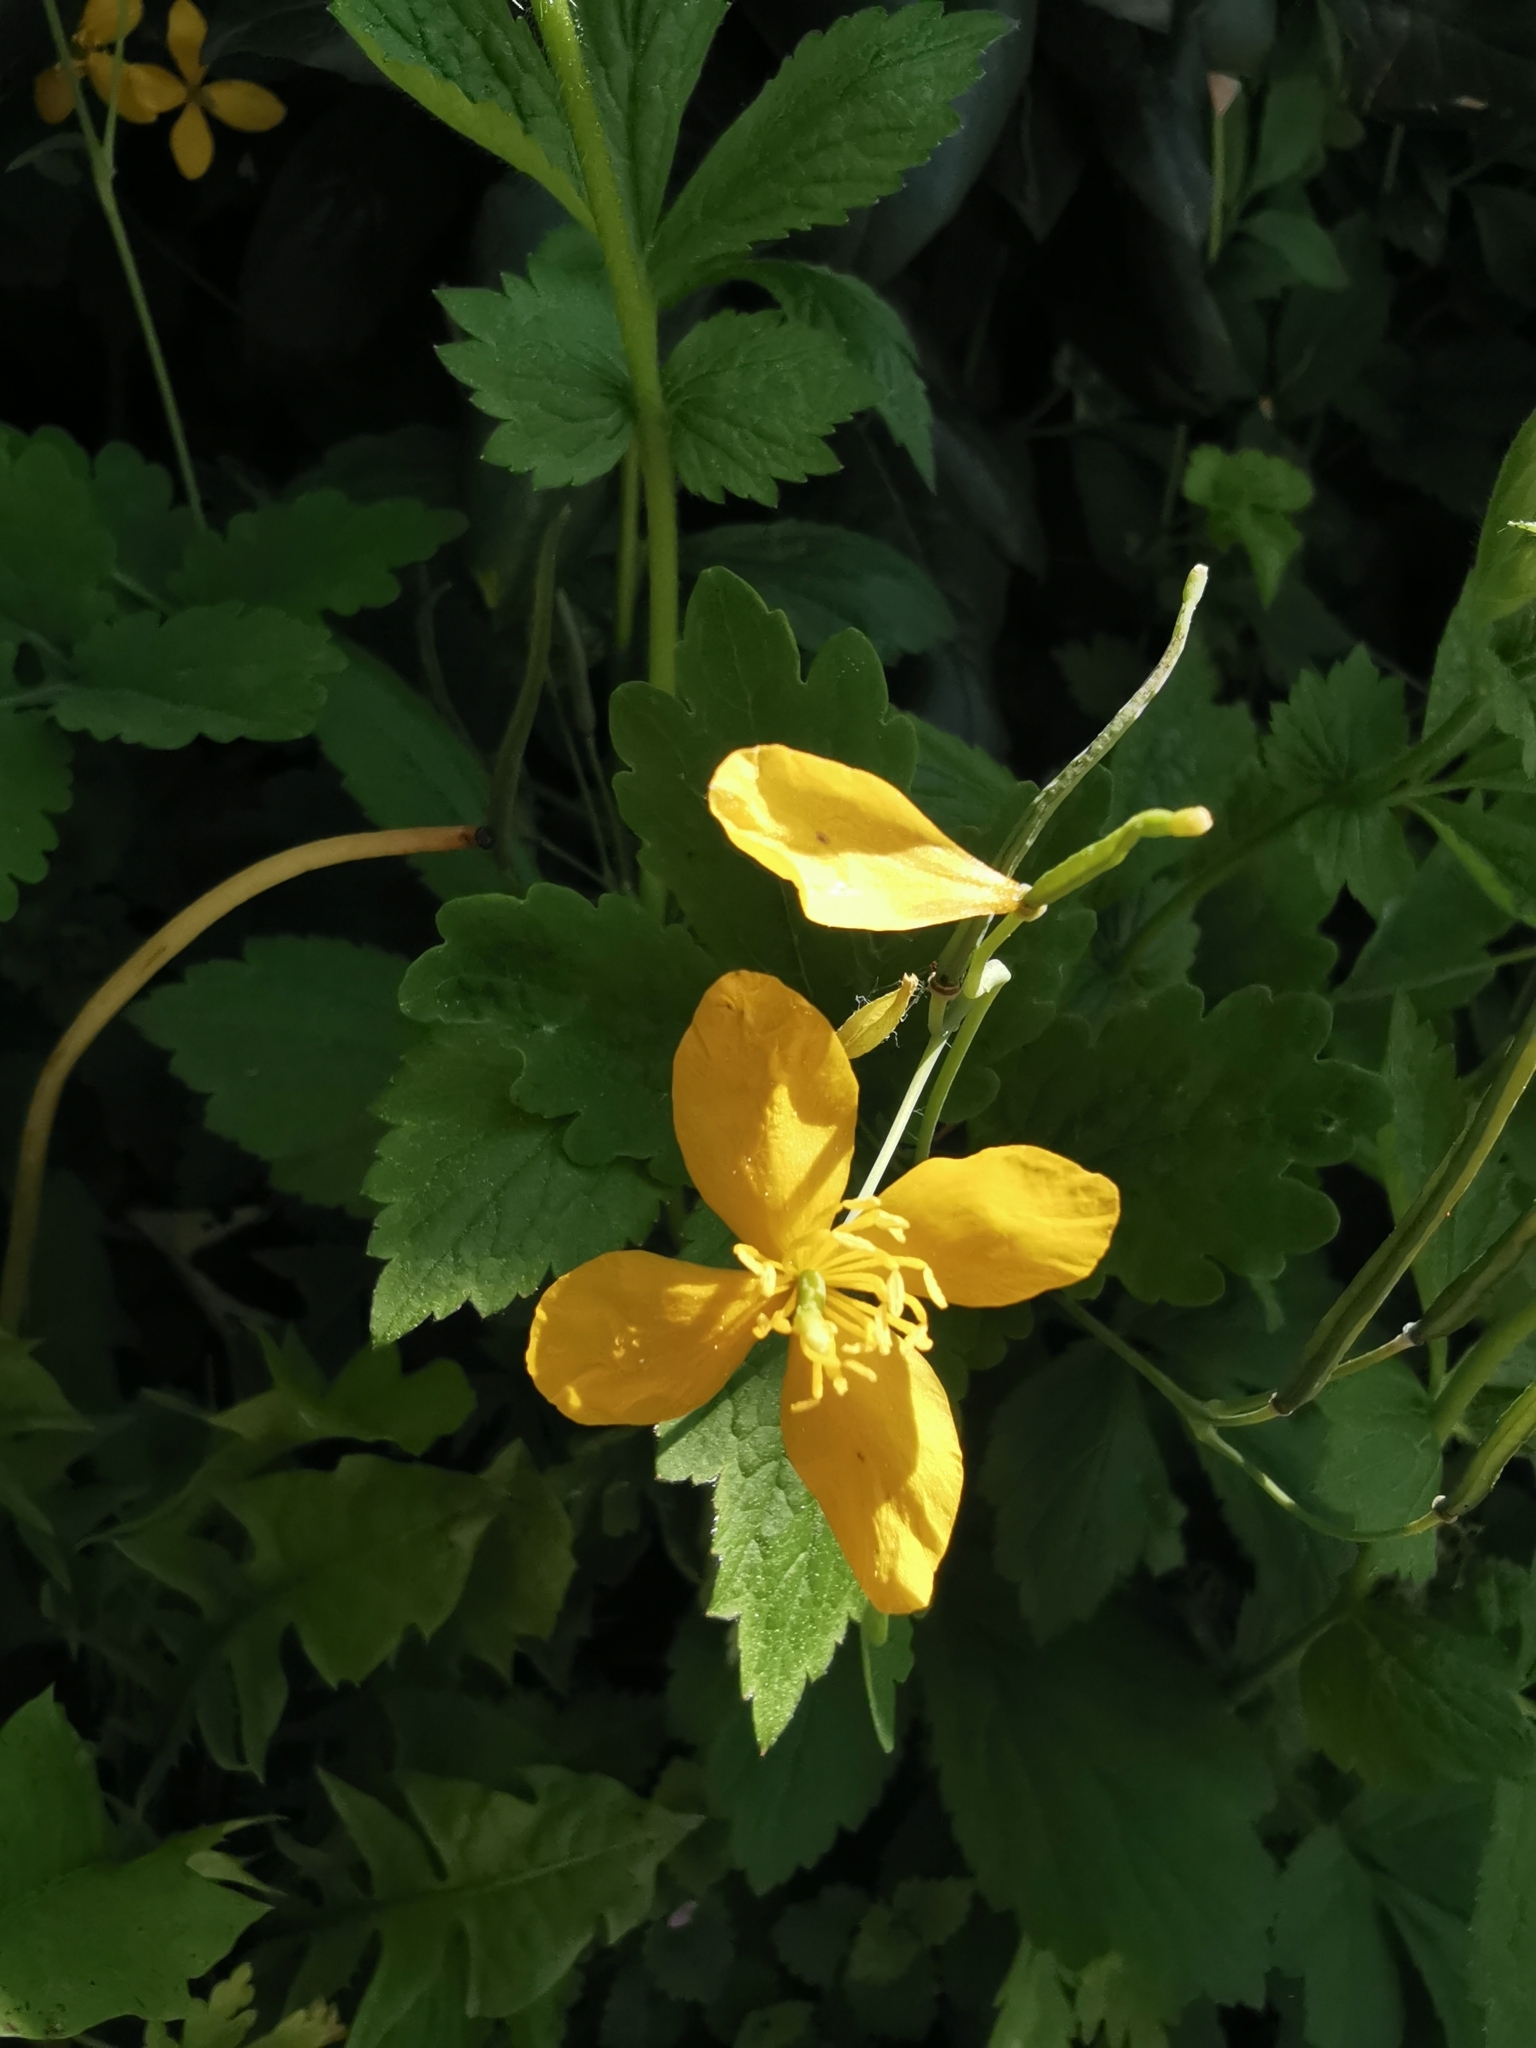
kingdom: Plantae
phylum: Tracheophyta
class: Magnoliopsida
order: Ranunculales
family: Papaveraceae
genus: Chelidonium
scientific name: Chelidonium majus
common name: Greater celandine
